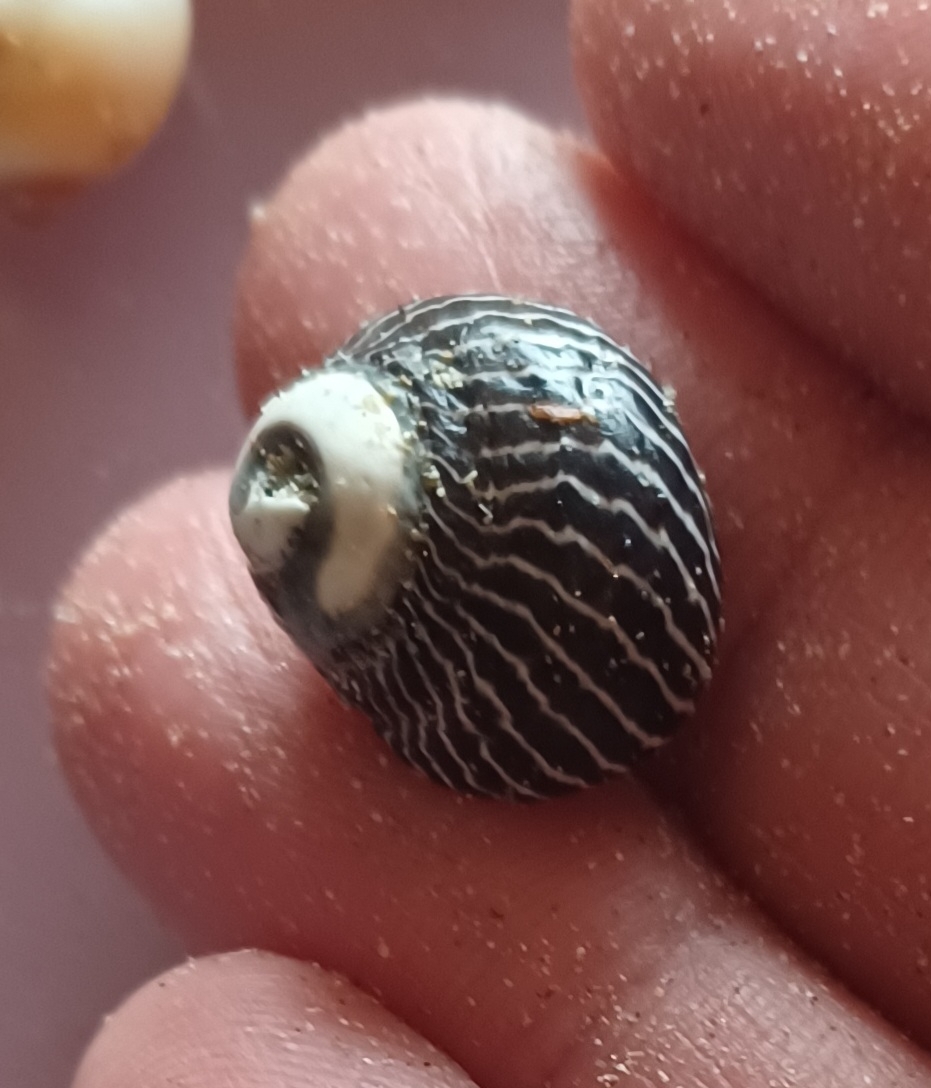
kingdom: Animalia
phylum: Mollusca
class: Gastropoda
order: Trochida
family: Trochidae
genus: Austrocochlea
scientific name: Austrocochlea porcata
